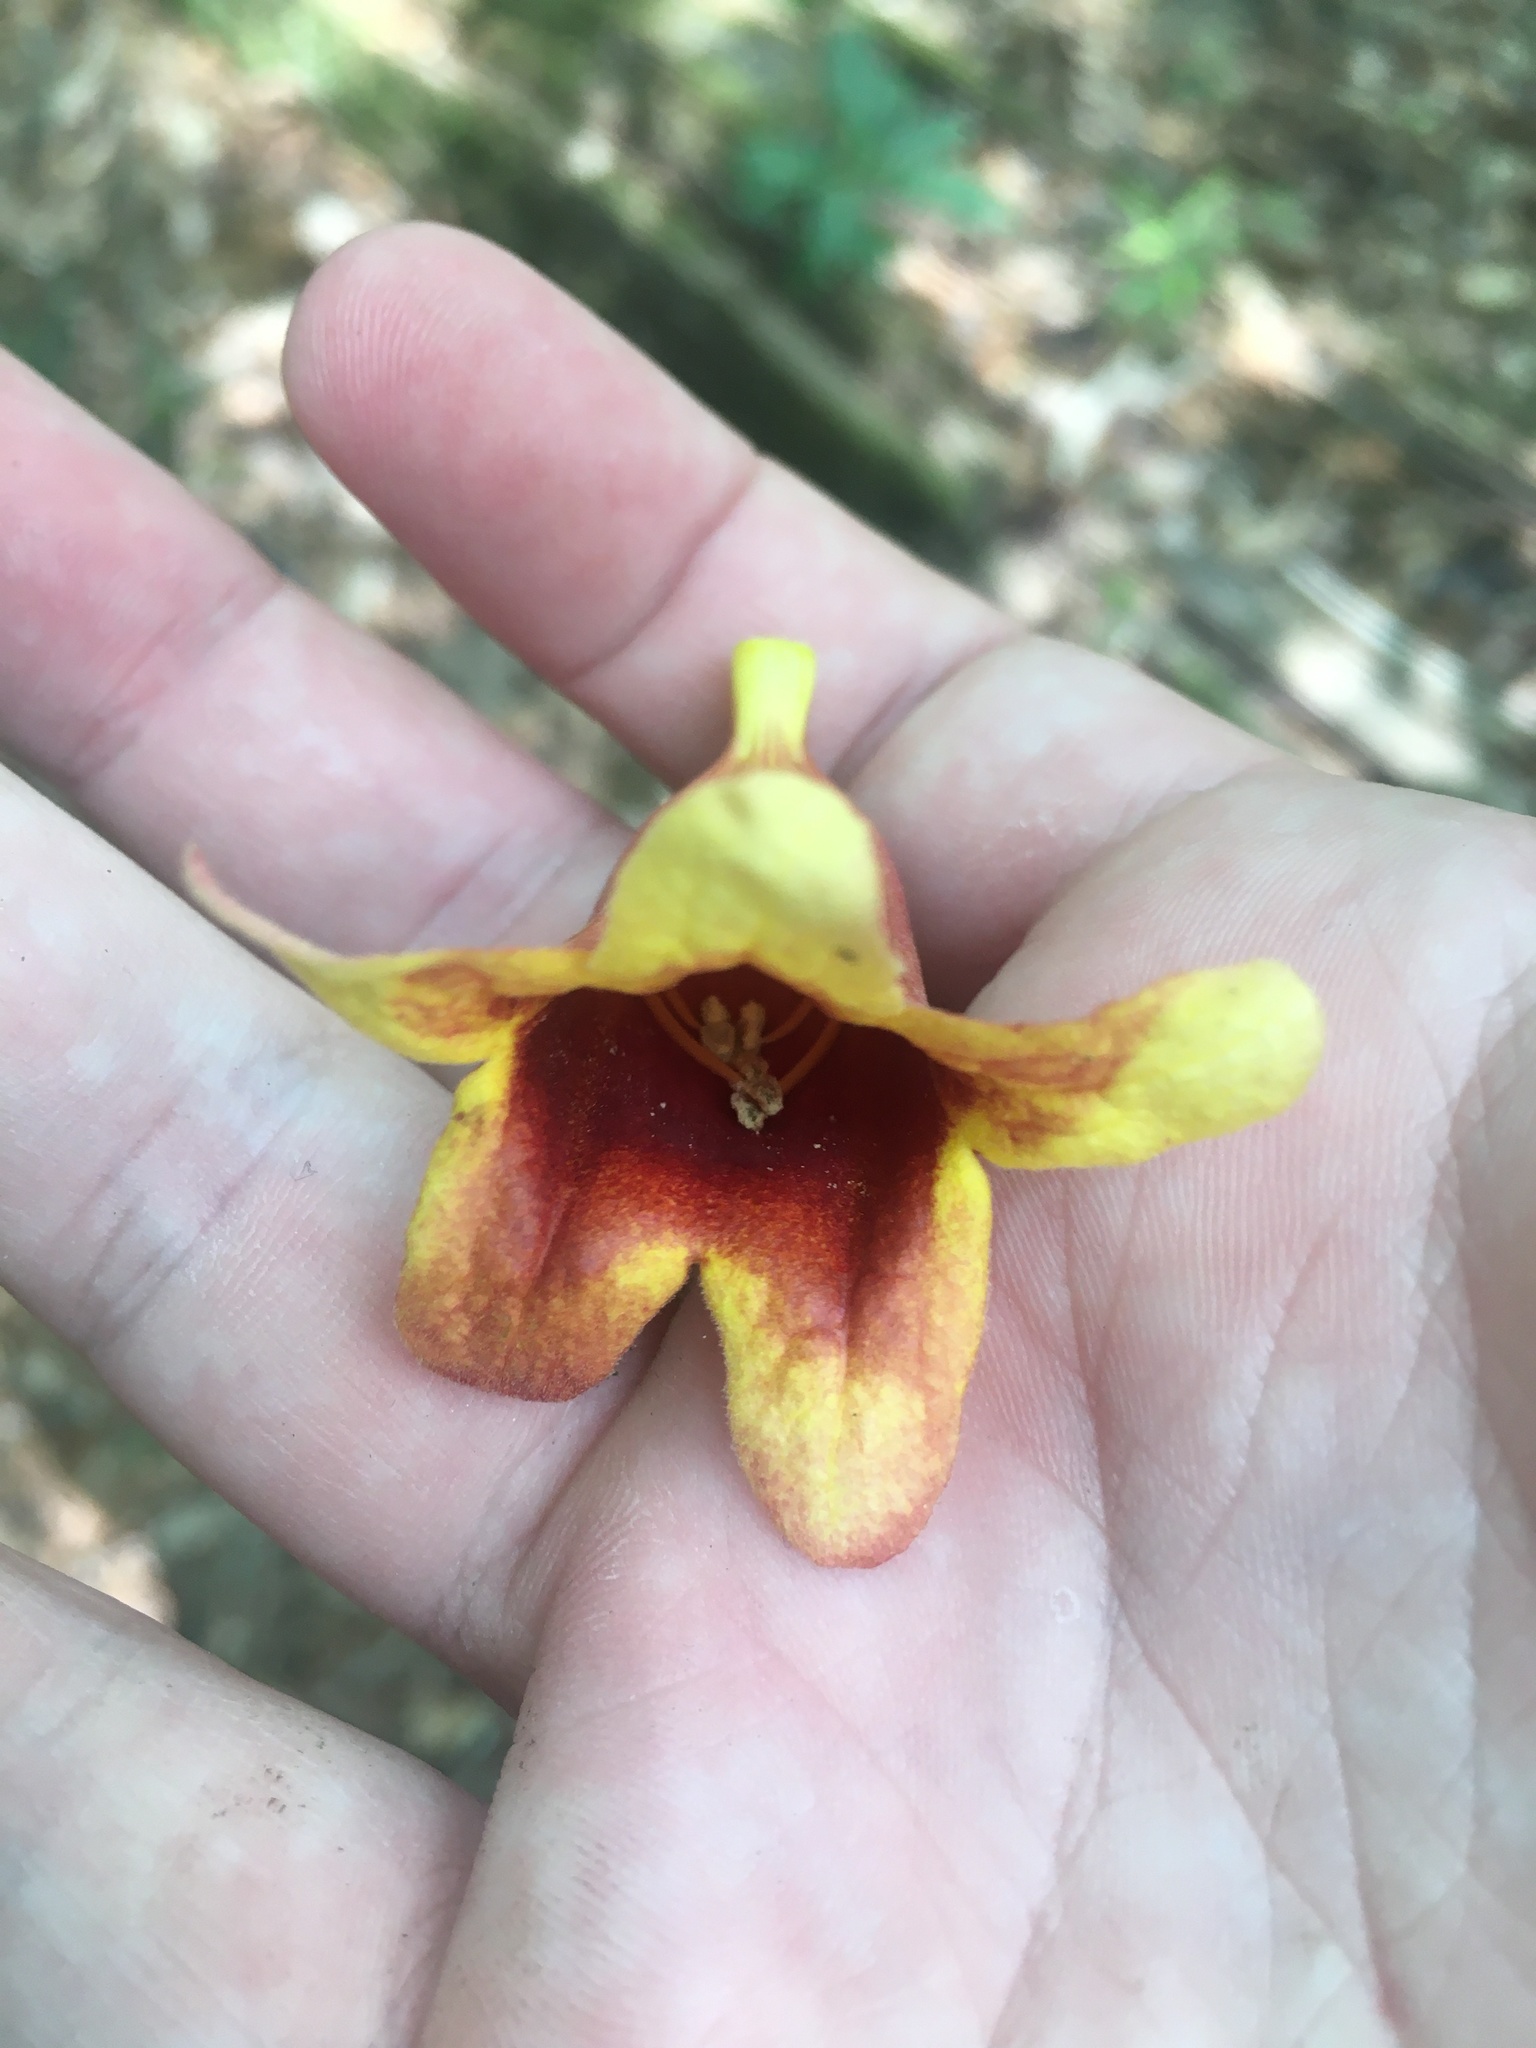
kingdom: Plantae
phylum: Tracheophyta
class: Magnoliopsida
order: Lamiales
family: Bignoniaceae
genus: Bignonia
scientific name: Bignonia capreolata
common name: Crossvine
